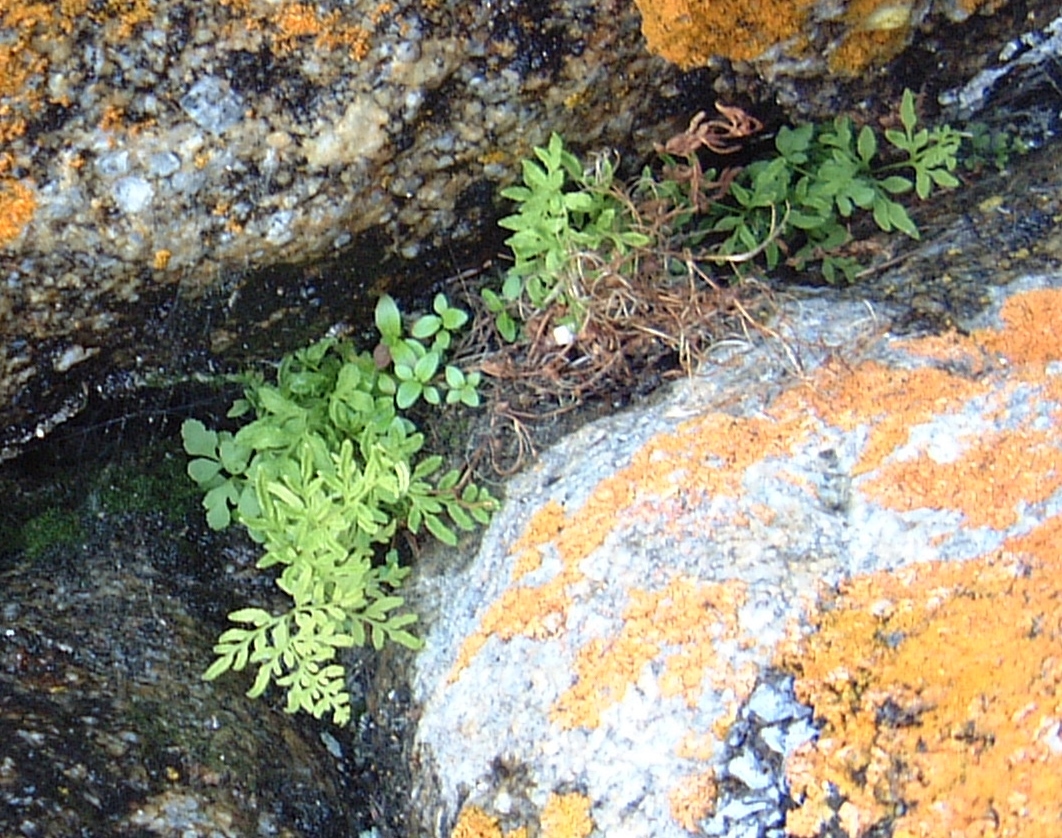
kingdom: Plantae
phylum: Tracheophyta
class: Polypodiopsida
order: Polypodiales
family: Pteridaceae
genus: Cryptogramma
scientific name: Cryptogramma stelleri
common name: Cliff-brake
